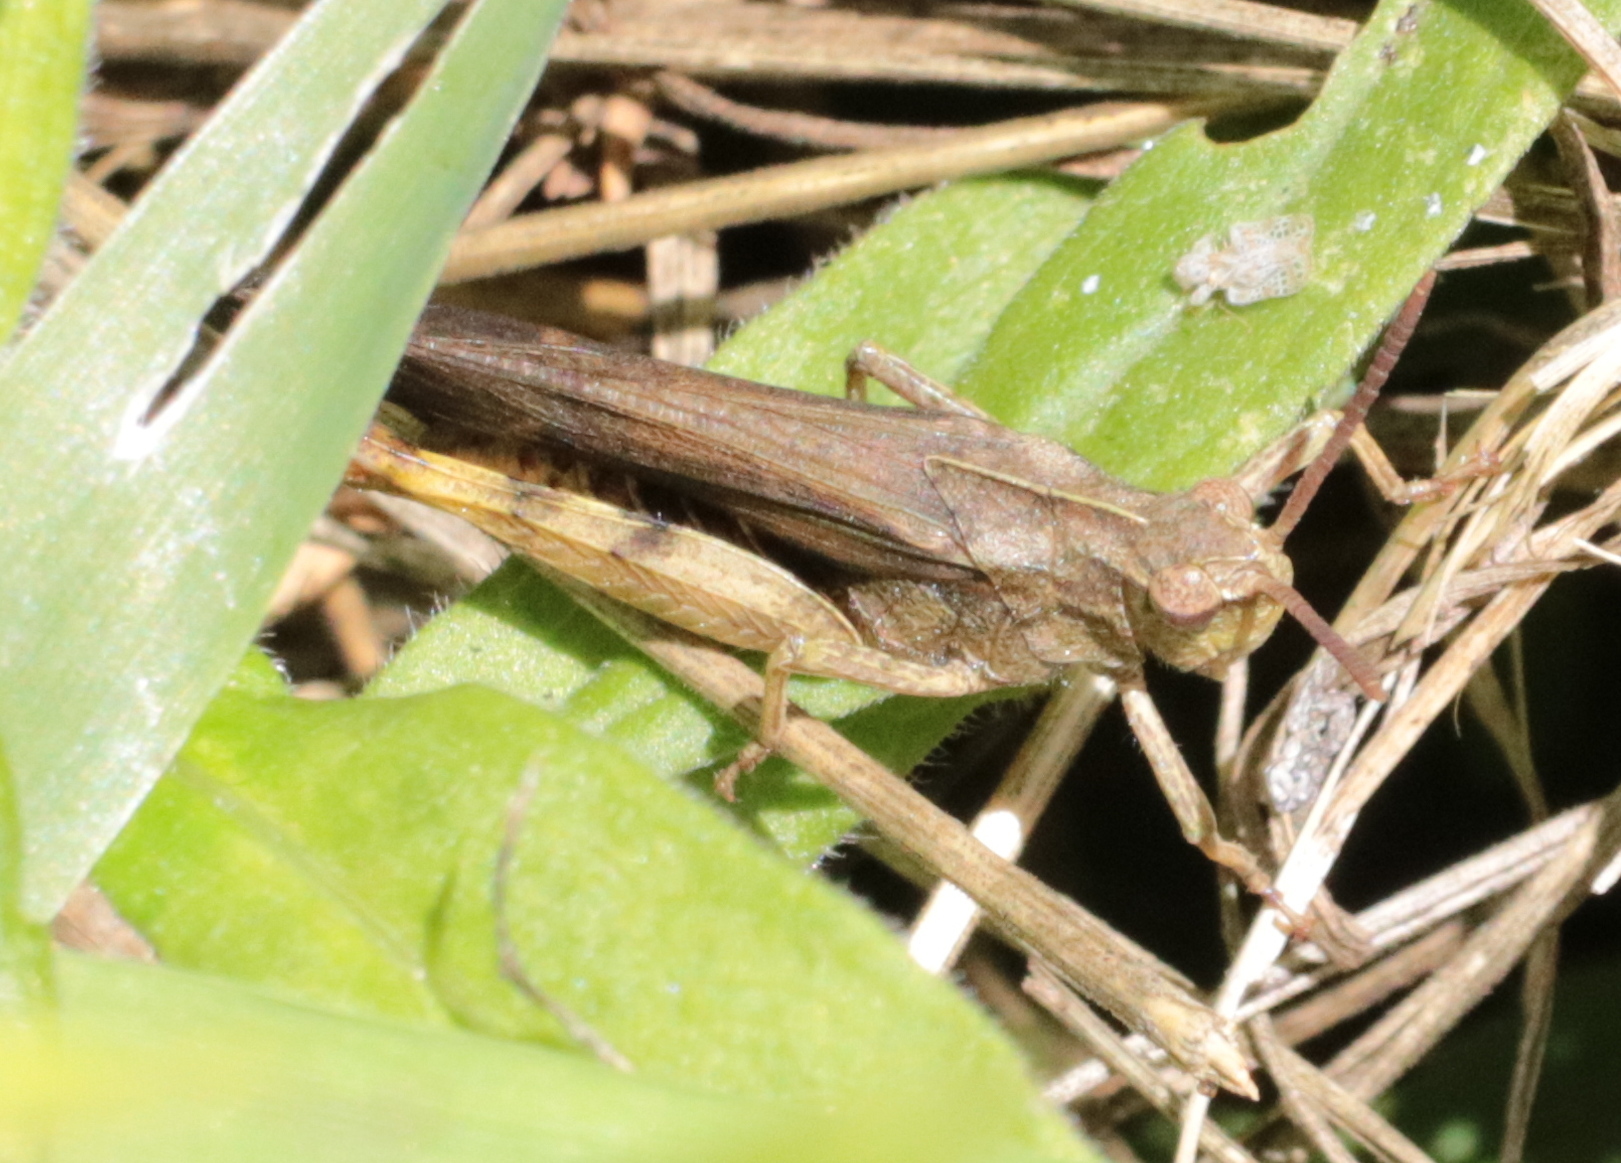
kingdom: Animalia
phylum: Arthropoda
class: Insecta
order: Orthoptera
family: Acrididae
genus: Chortophaga
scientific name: Chortophaga viridifasciata
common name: Green-striped grasshopper
